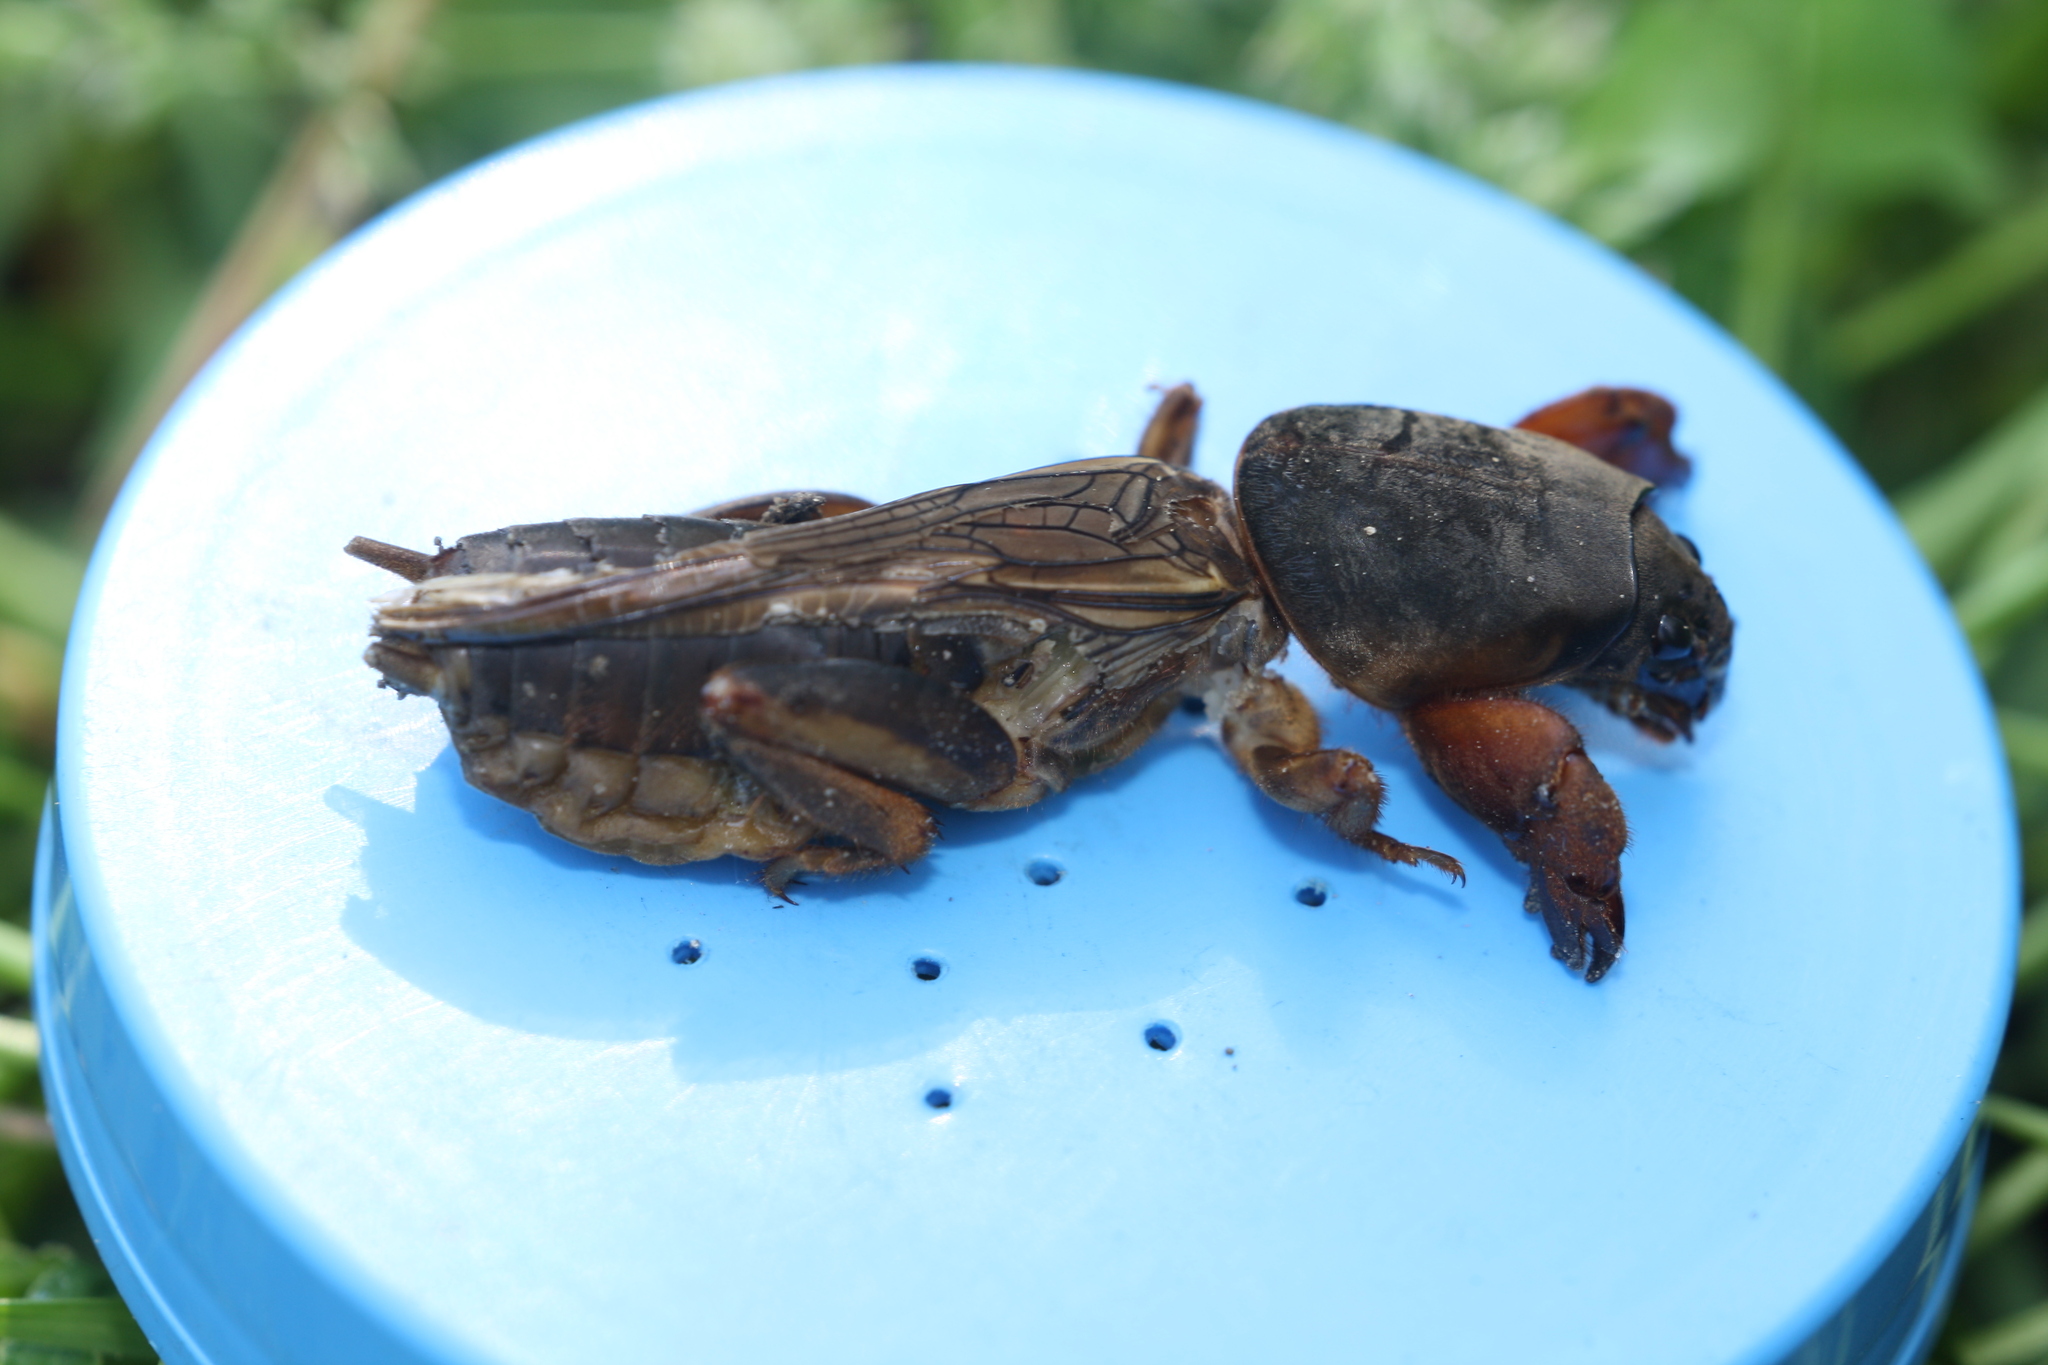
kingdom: Animalia
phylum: Arthropoda
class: Insecta
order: Orthoptera
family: Gryllotalpidae
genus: Gryllotalpa
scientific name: Gryllotalpa gryllotalpa
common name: European mole cricket
